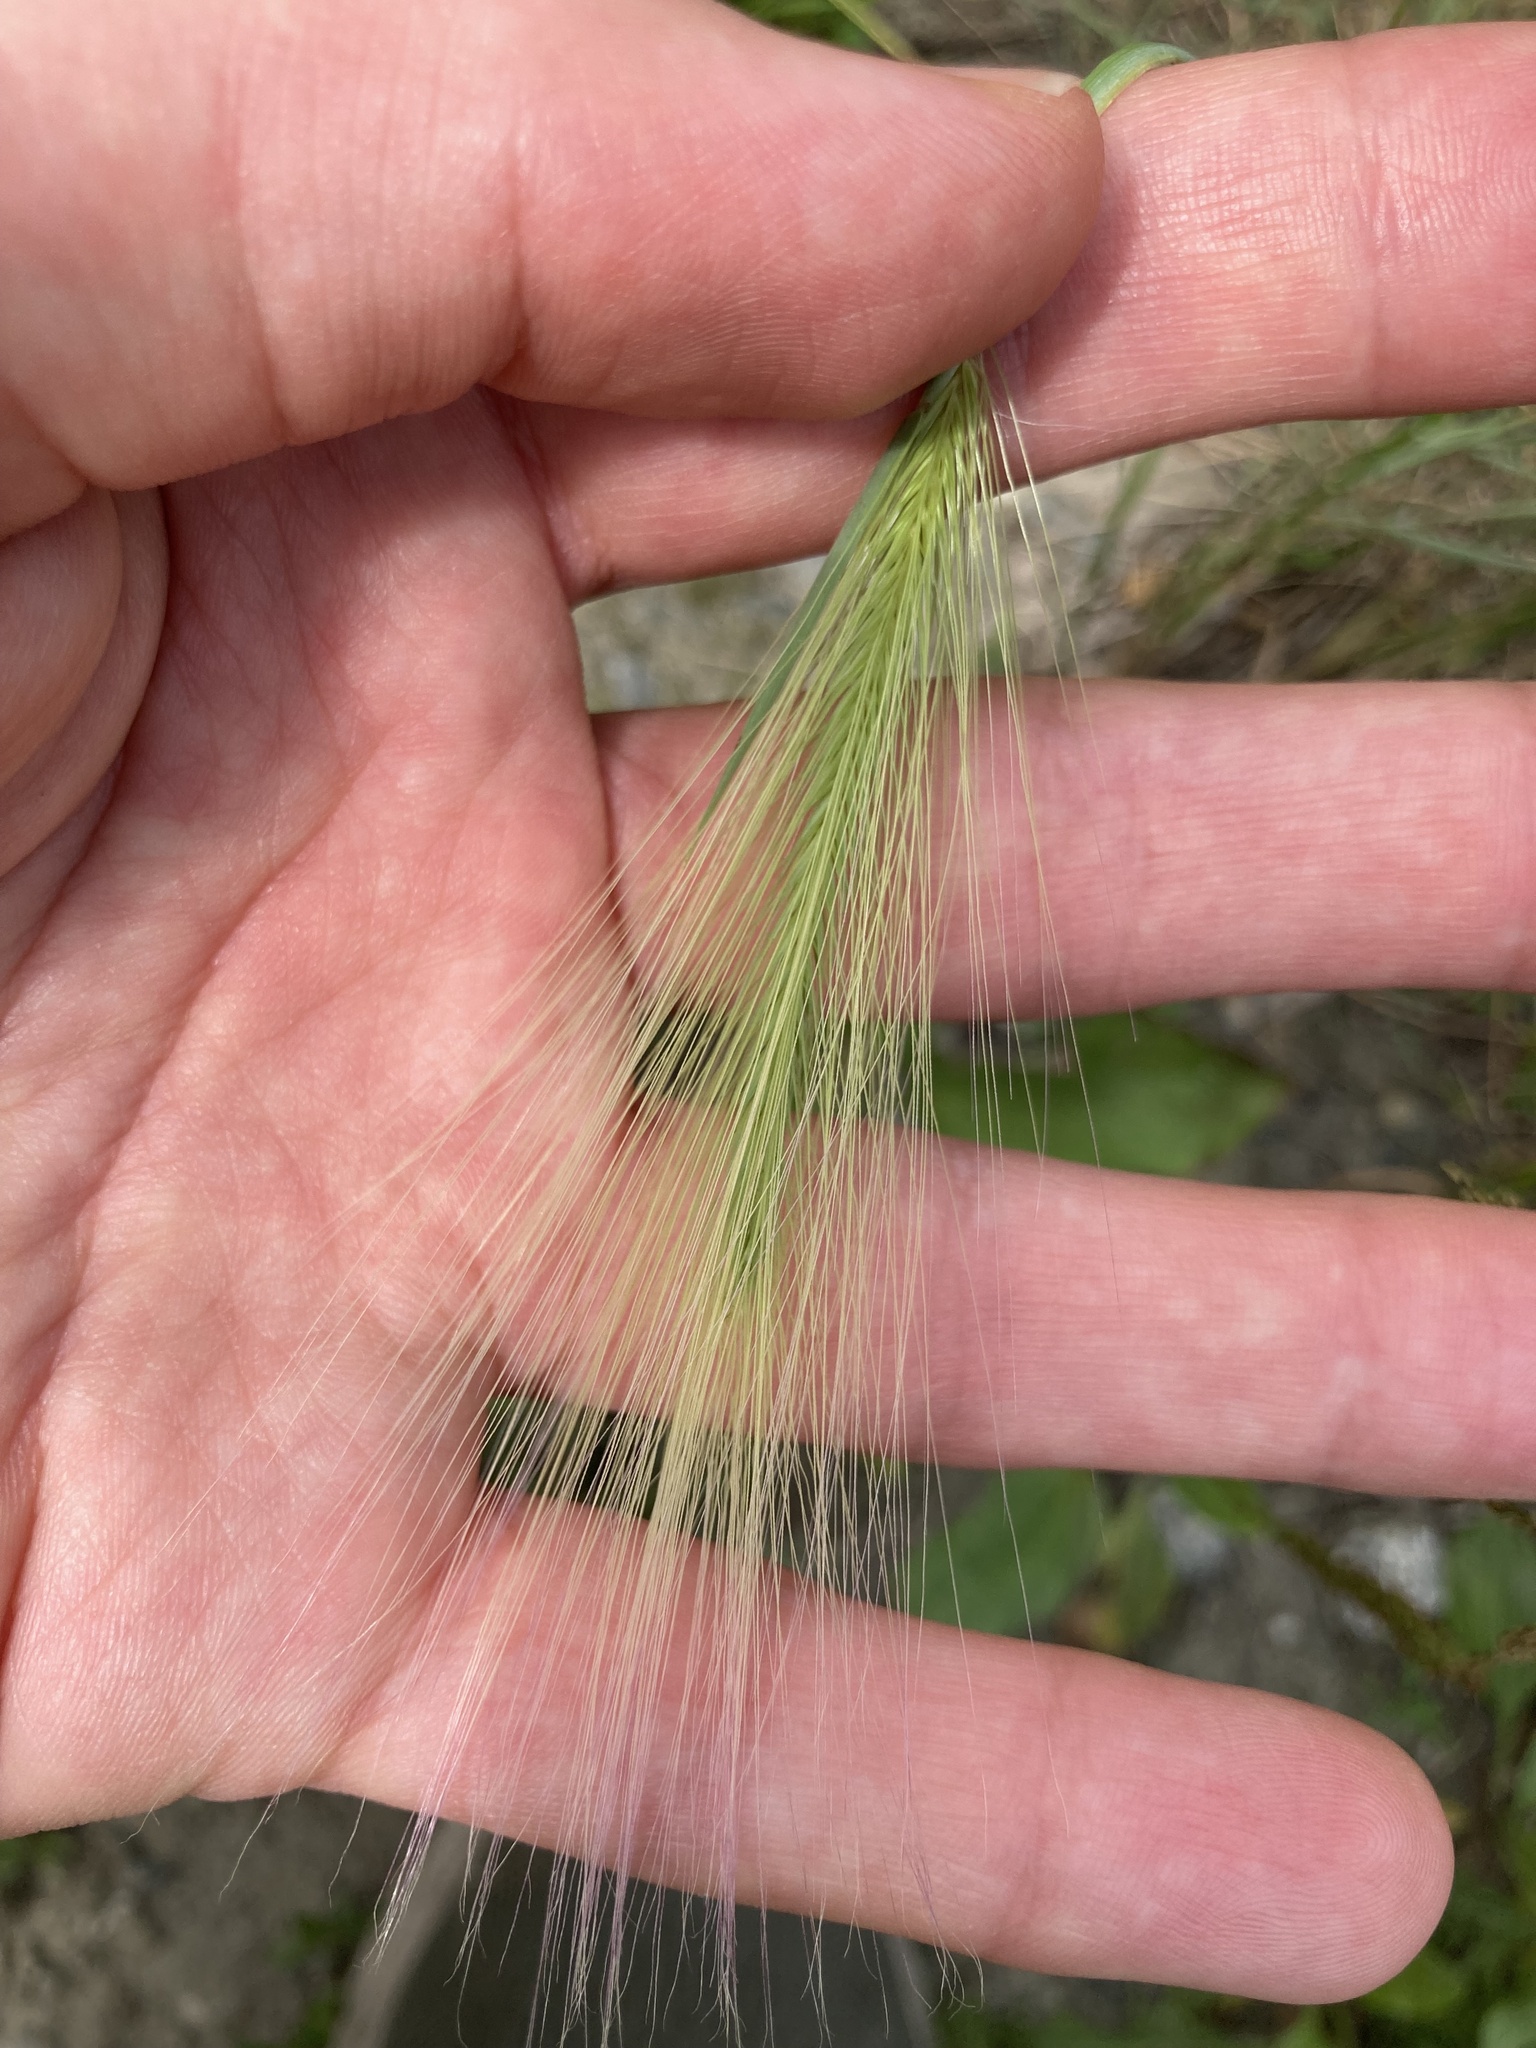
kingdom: Plantae
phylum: Tracheophyta
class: Liliopsida
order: Poales
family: Poaceae
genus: Hordeum
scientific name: Hordeum jubatum
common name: Foxtail barley
